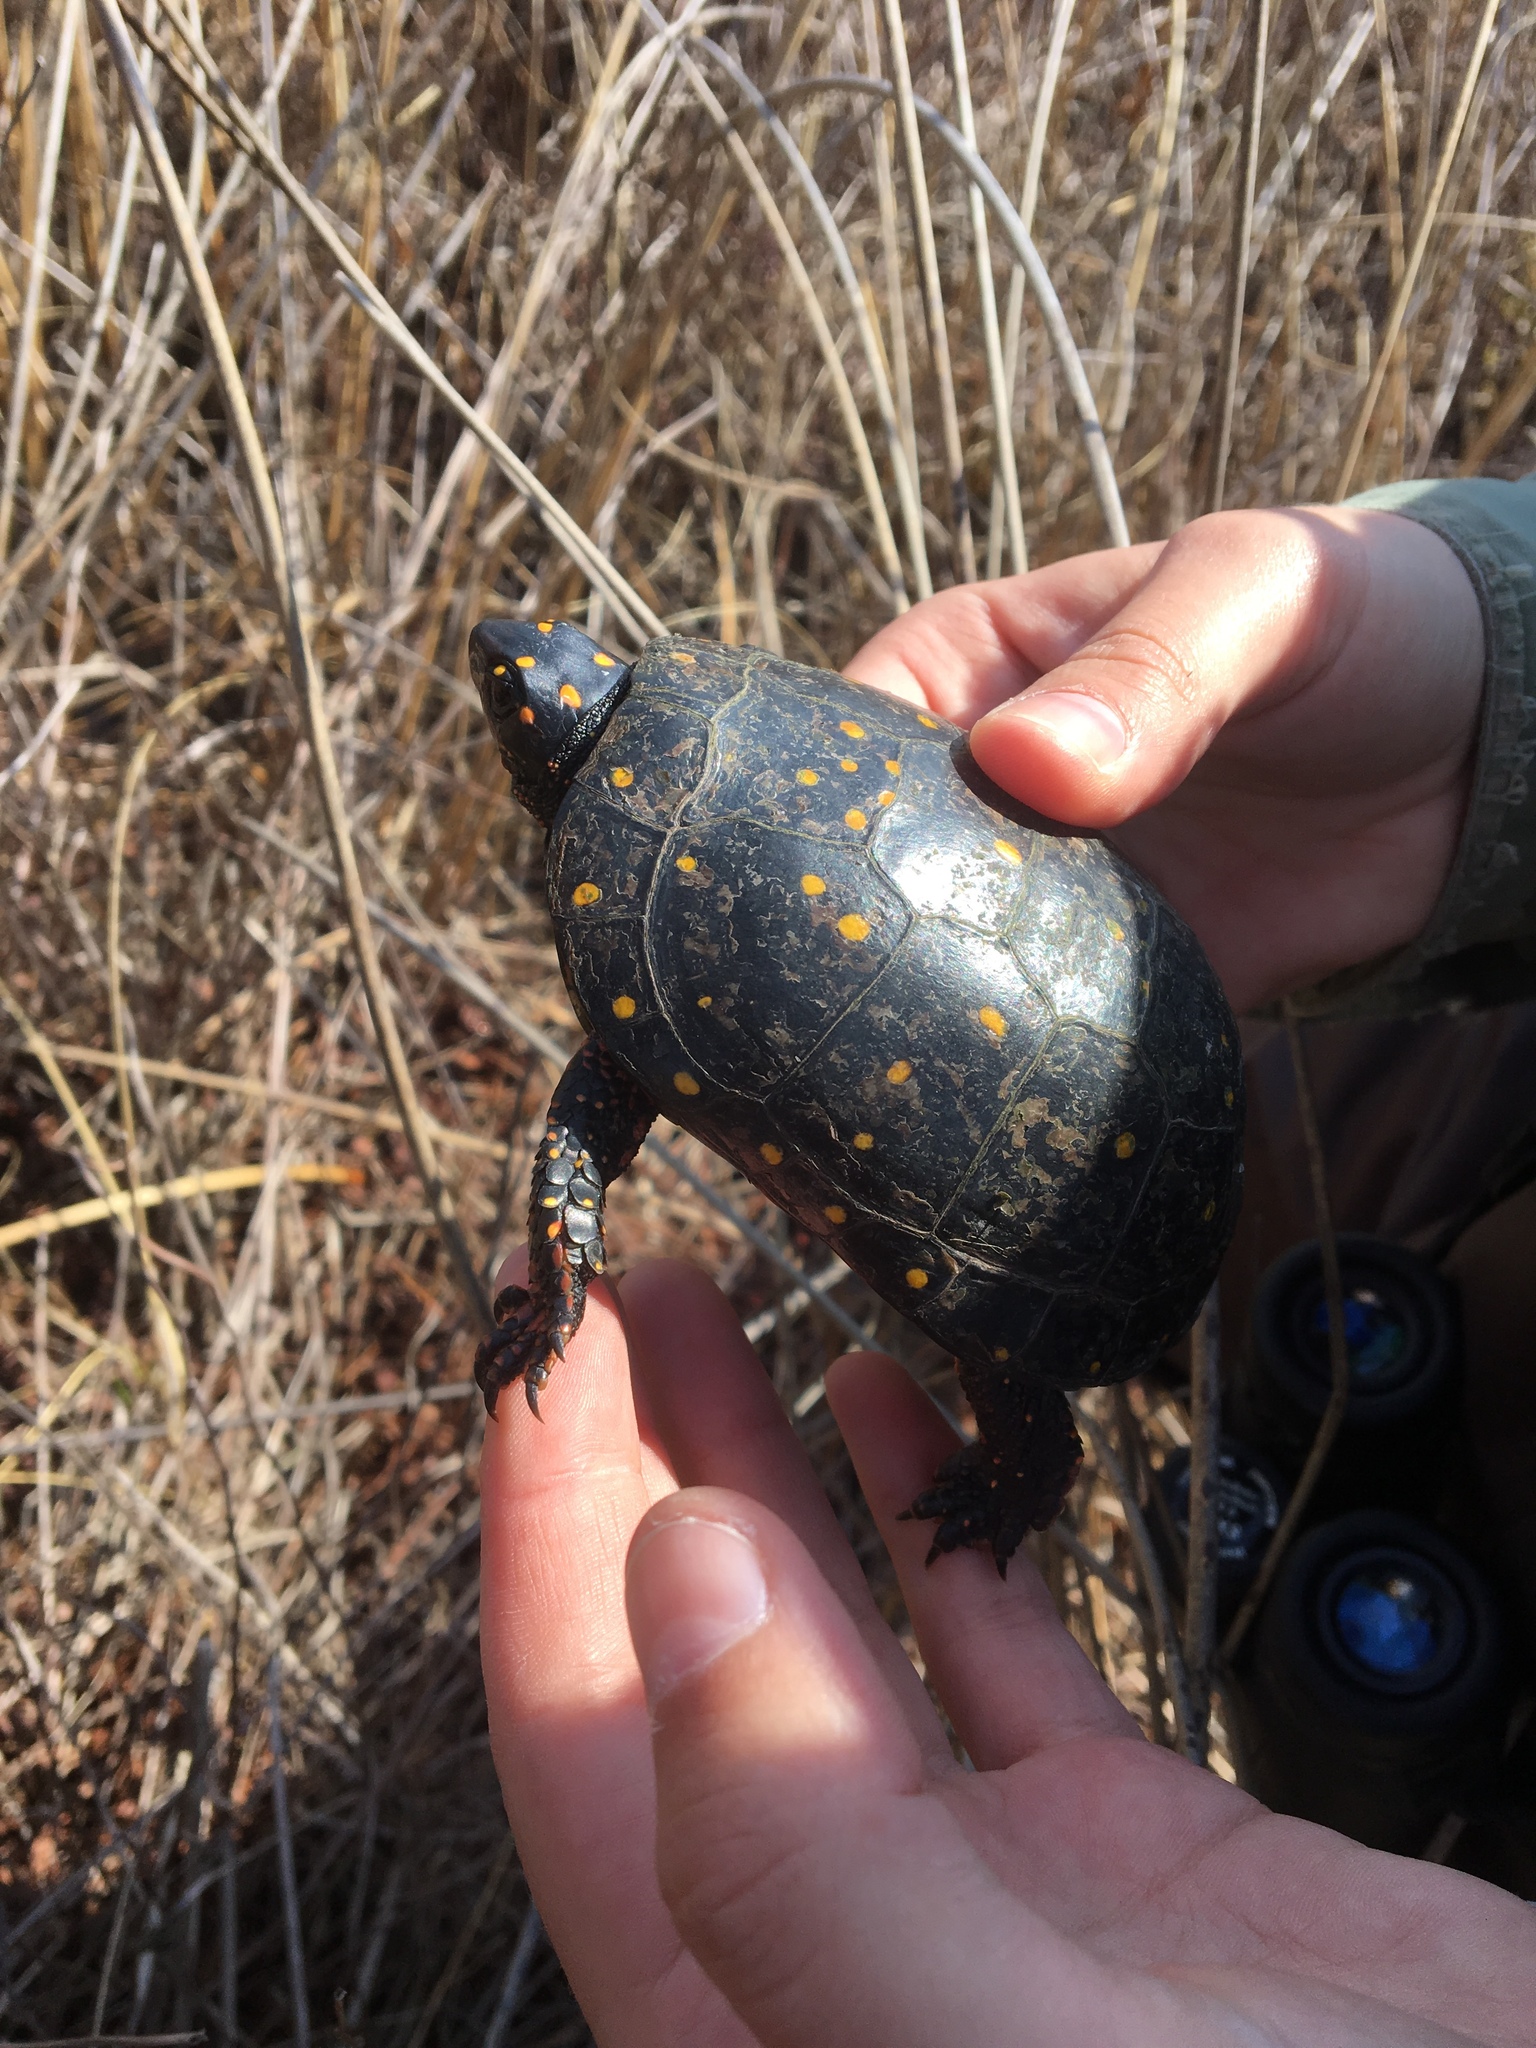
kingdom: Animalia
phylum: Chordata
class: Testudines
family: Emydidae
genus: Clemmys
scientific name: Clemmys guttata
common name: Spotted turtle
